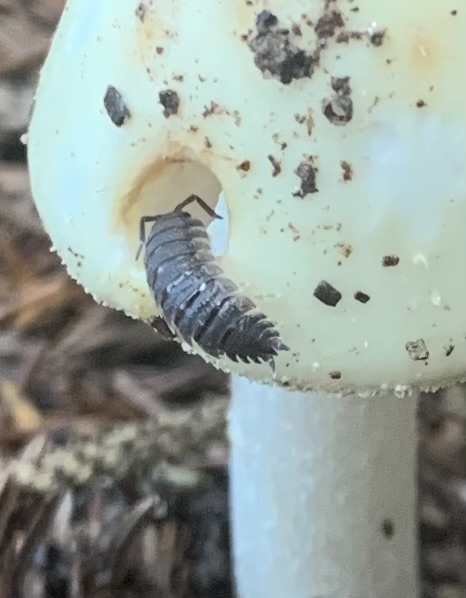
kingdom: Animalia
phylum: Arthropoda
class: Malacostraca
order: Isopoda
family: Porcellionidae
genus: Porcellio
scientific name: Porcellio scaber
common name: Common rough woodlouse
